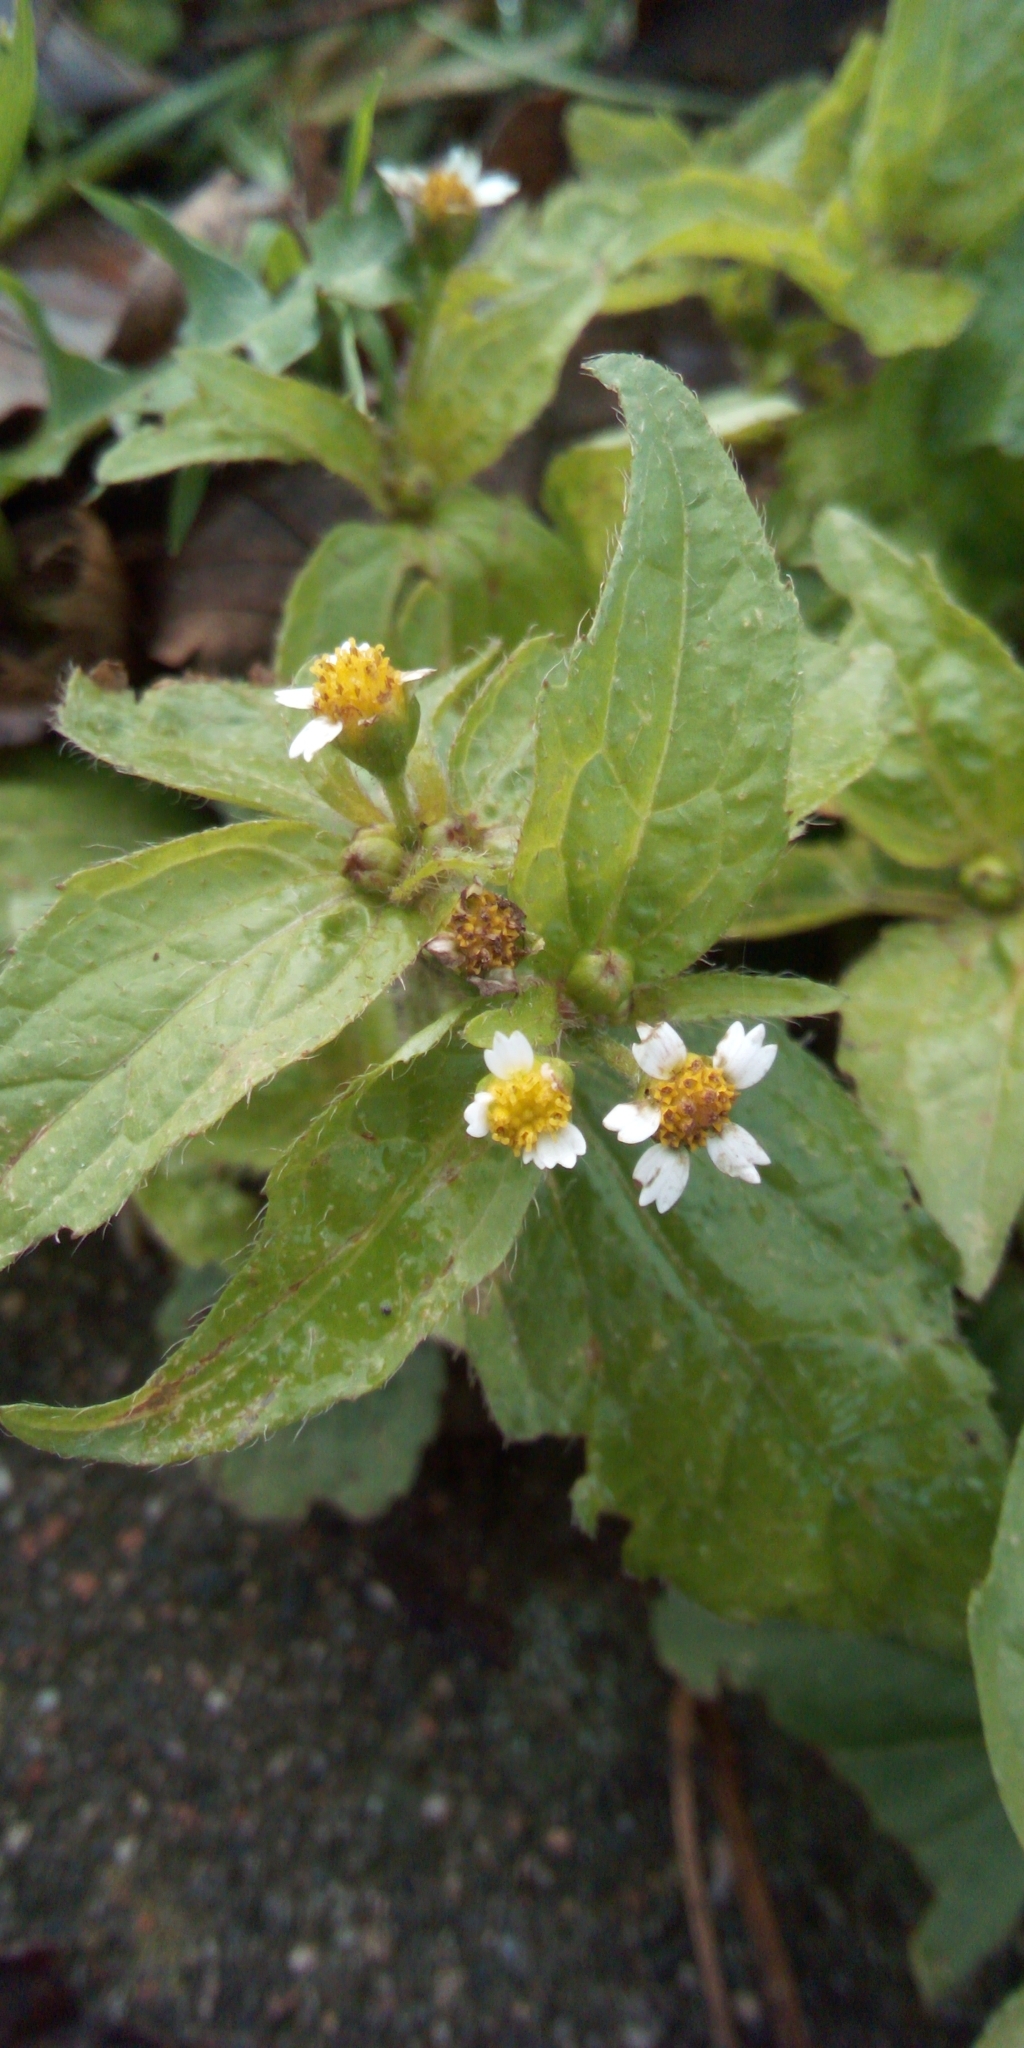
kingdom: Plantae
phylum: Tracheophyta
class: Magnoliopsida
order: Asterales
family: Asteraceae
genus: Galinsoga
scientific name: Galinsoga quadriradiata
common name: Shaggy soldier
